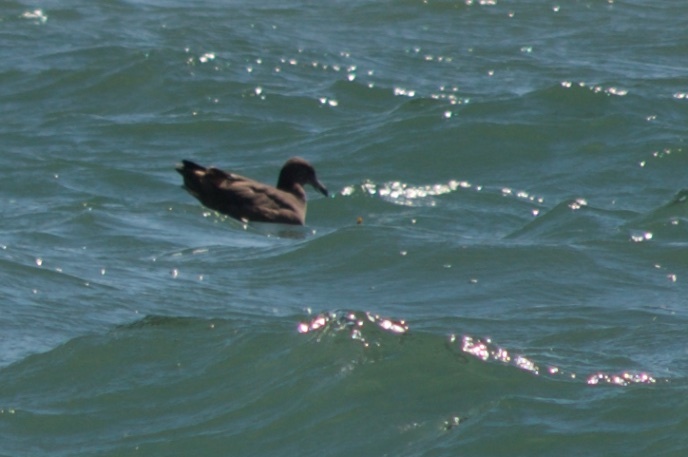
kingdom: Animalia
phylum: Chordata
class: Aves
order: Charadriiformes
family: Laridae
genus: Larus
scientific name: Larus heermanni
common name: Heermann's gull
